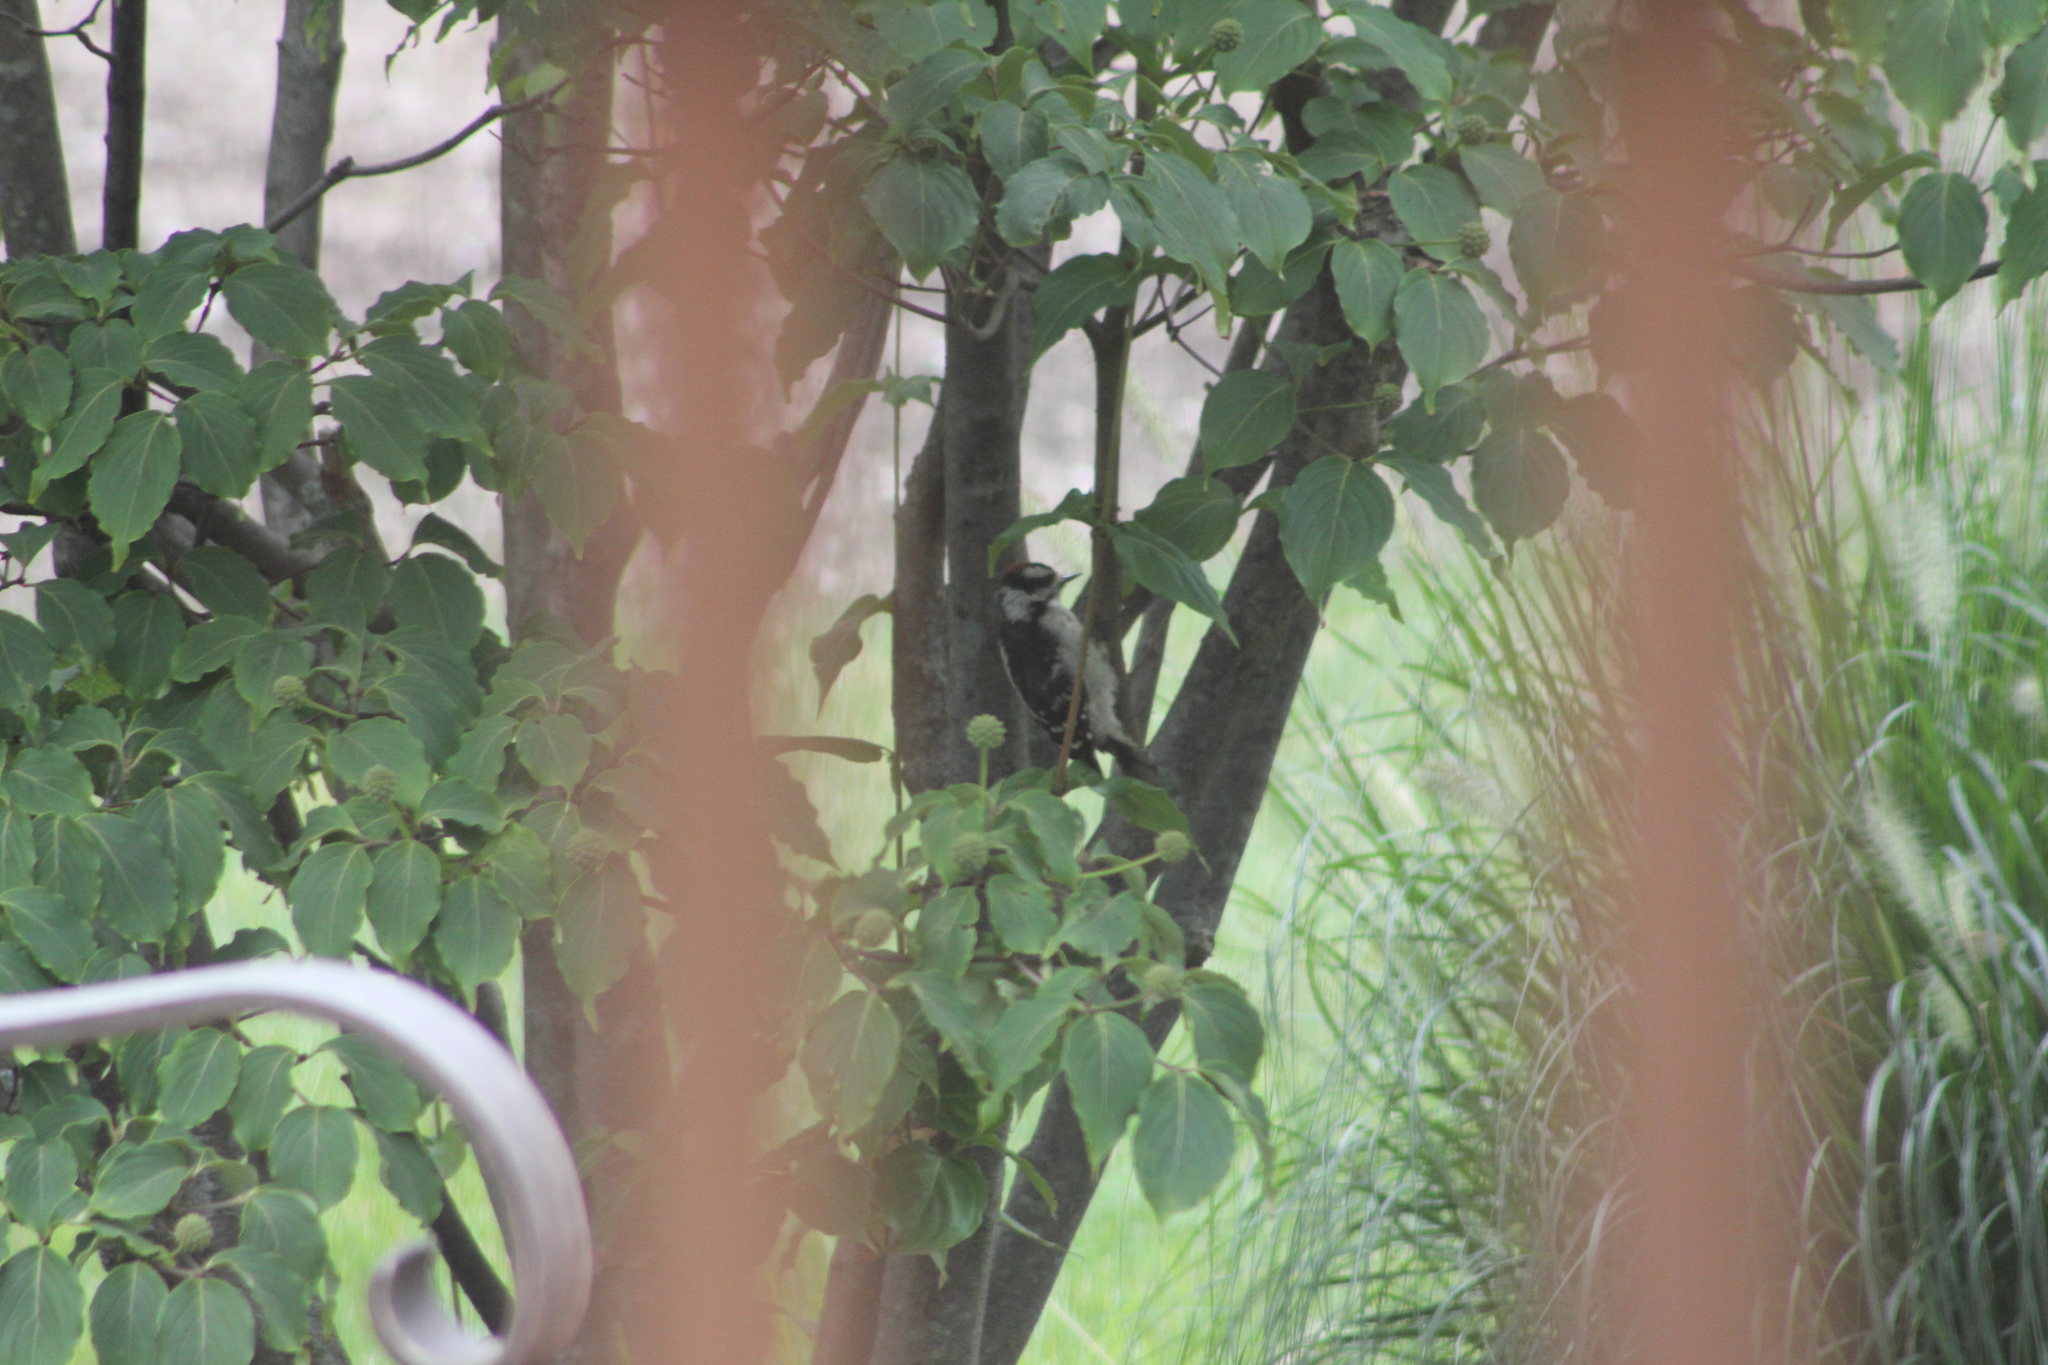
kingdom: Animalia
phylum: Chordata
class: Aves
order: Piciformes
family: Picidae
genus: Dryobates
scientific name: Dryobates pubescens
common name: Downy woodpecker
